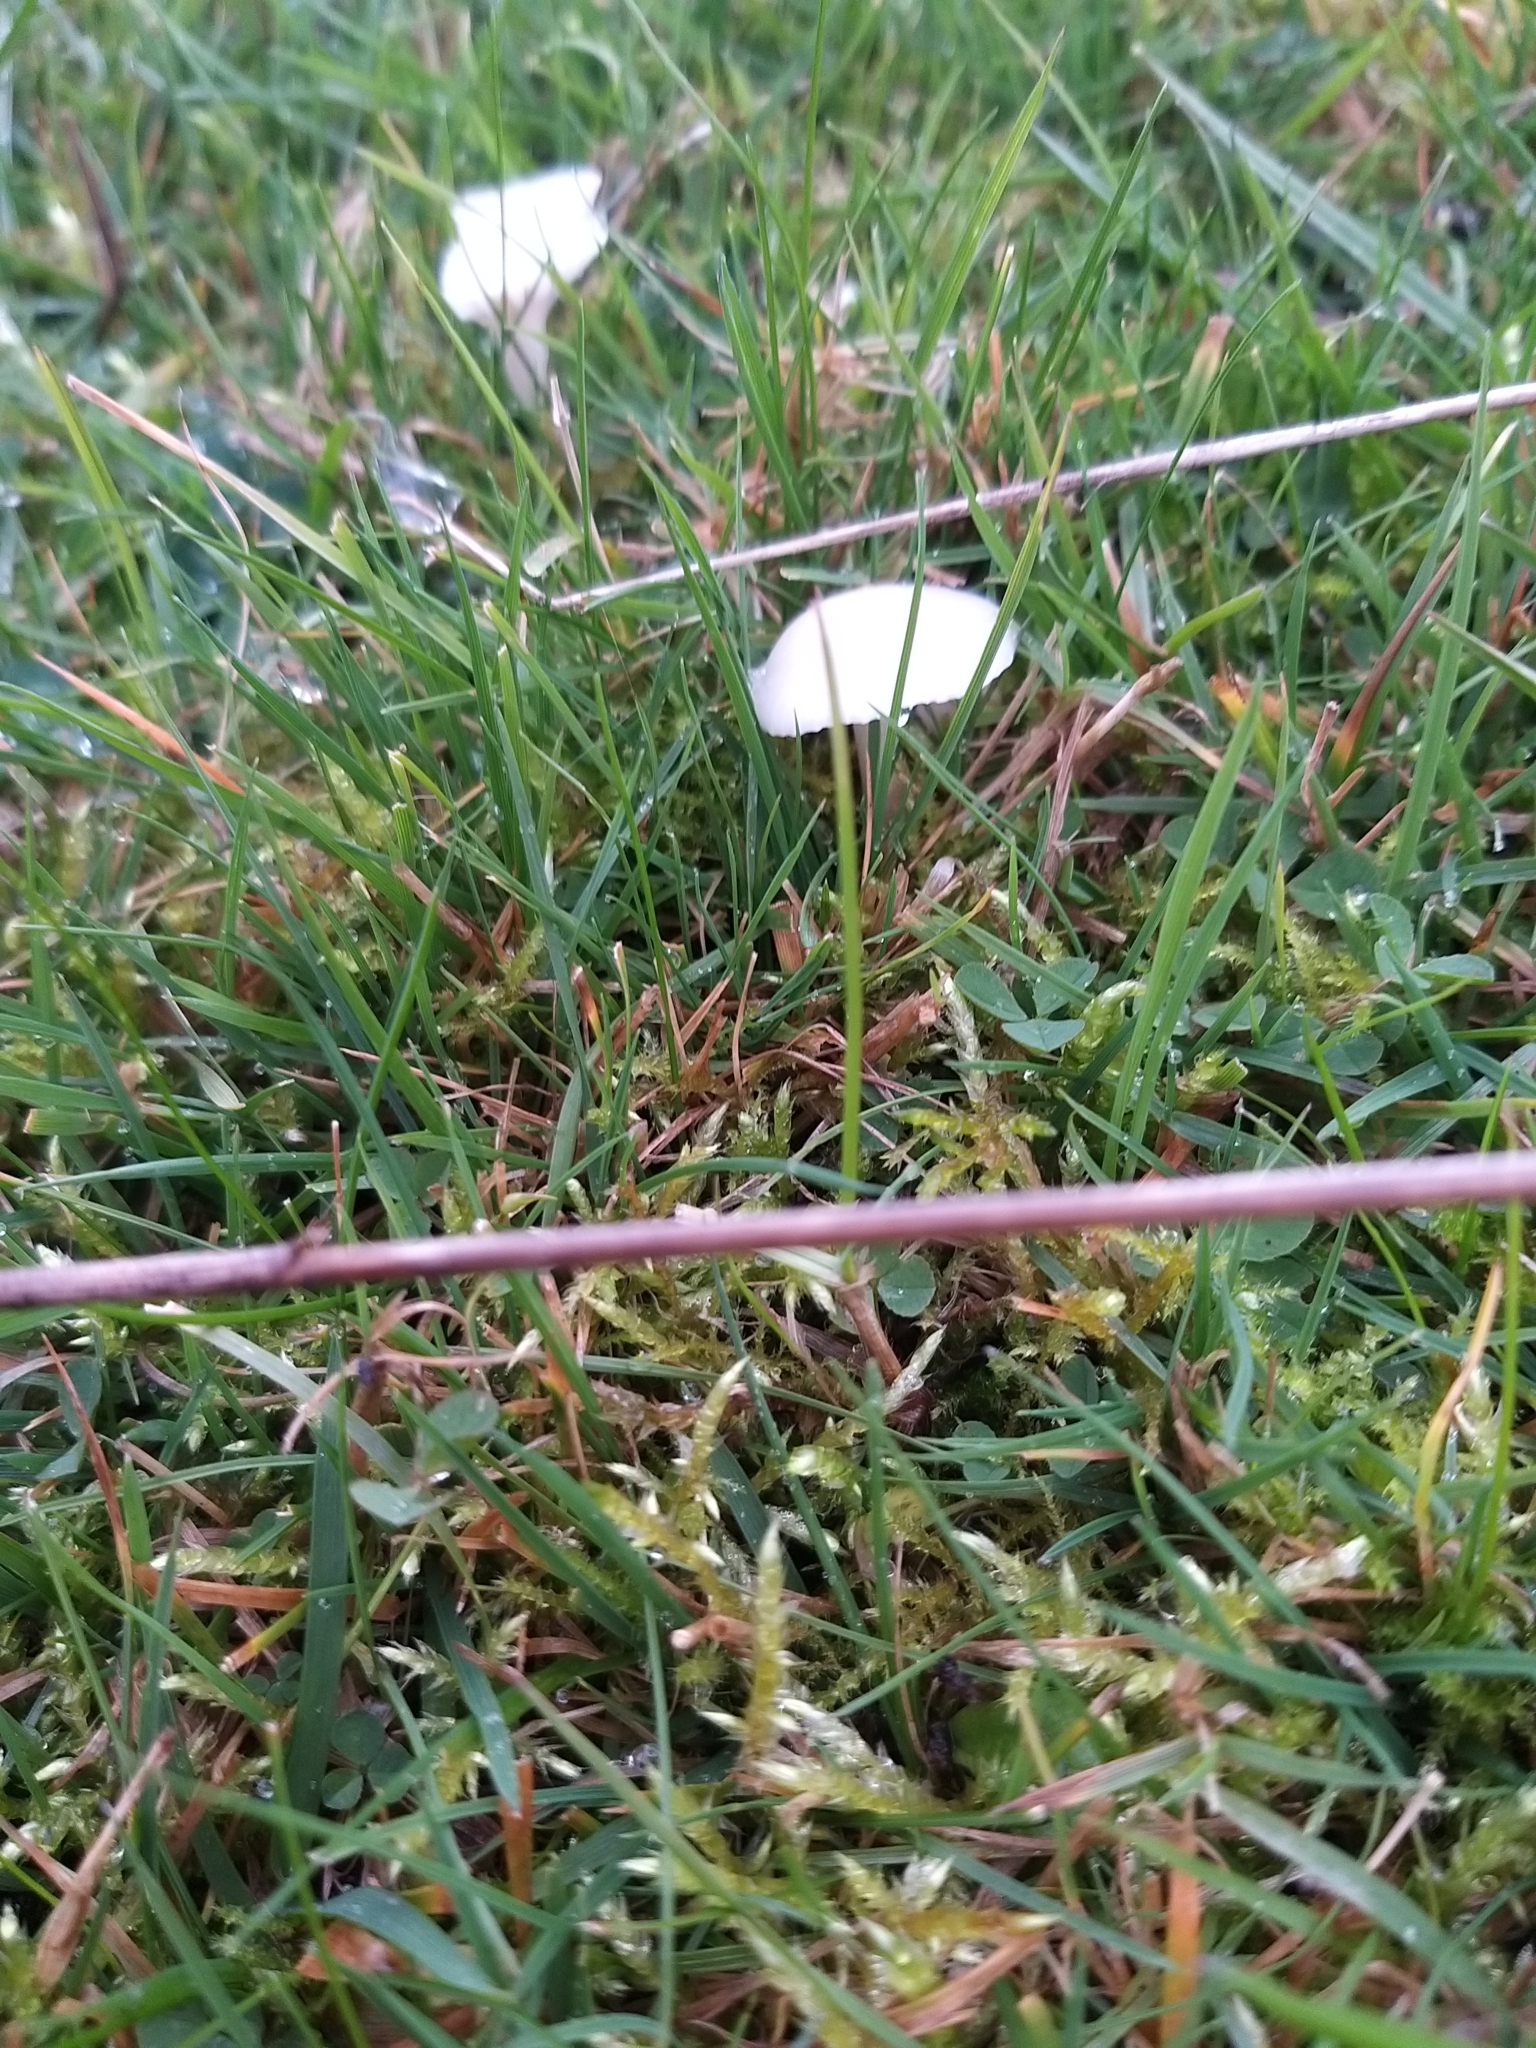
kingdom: Fungi
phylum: Basidiomycota
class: Agaricomycetes
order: Agaricales
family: Hygrophoraceae
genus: Cuphophyllus
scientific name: Cuphophyllus virgineus
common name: Snowy waxcap
